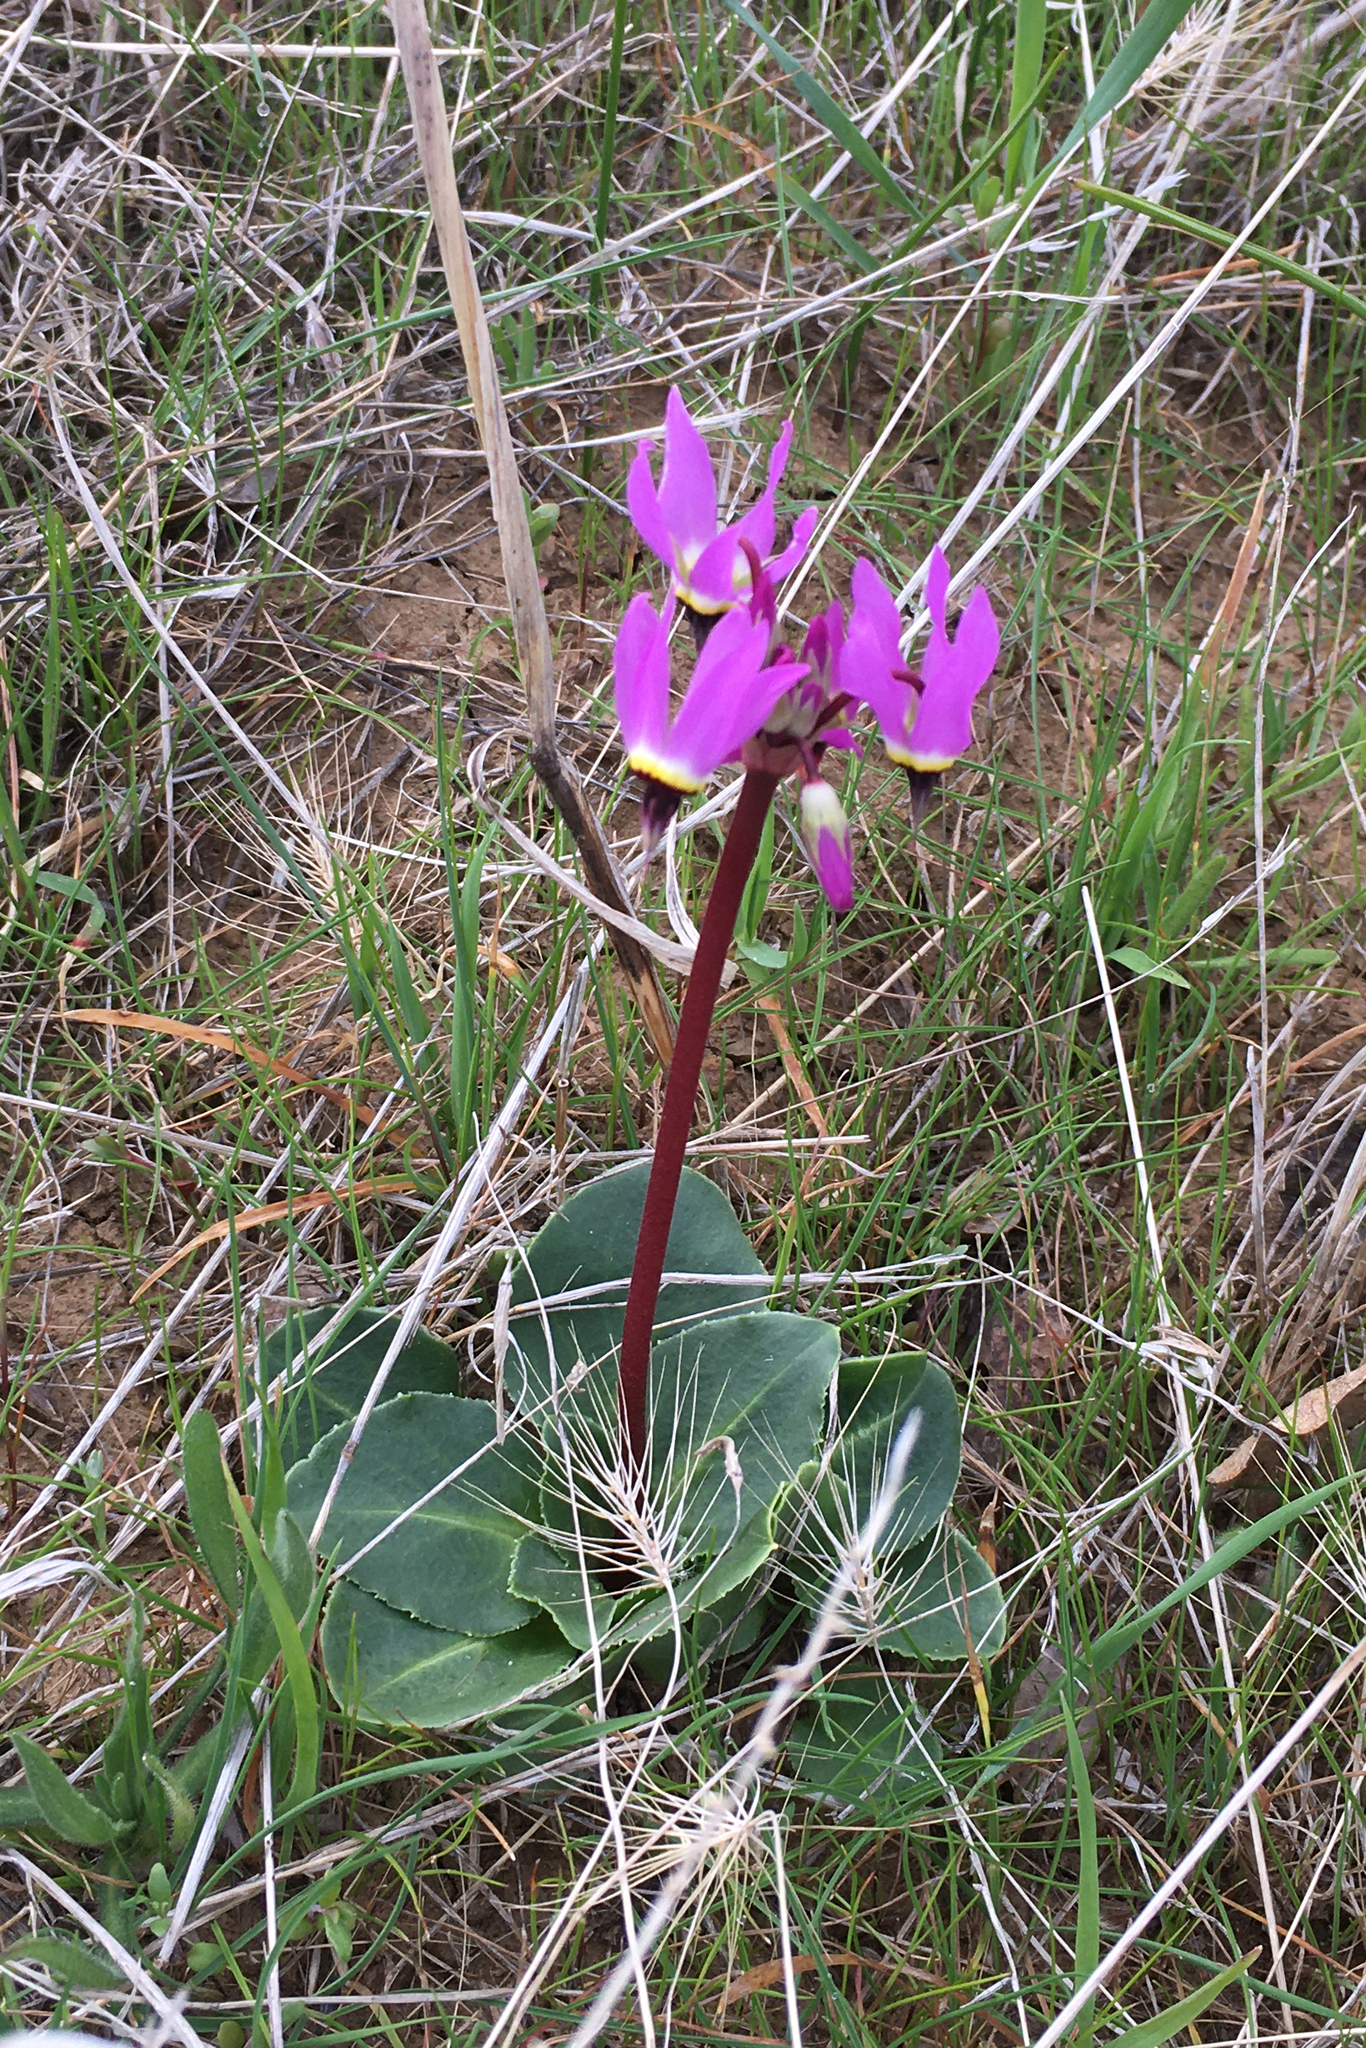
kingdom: Plantae
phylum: Tracheophyta
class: Magnoliopsida
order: Ericales
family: Primulaceae
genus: Dodecatheon
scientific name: Dodecatheon hendersonii
